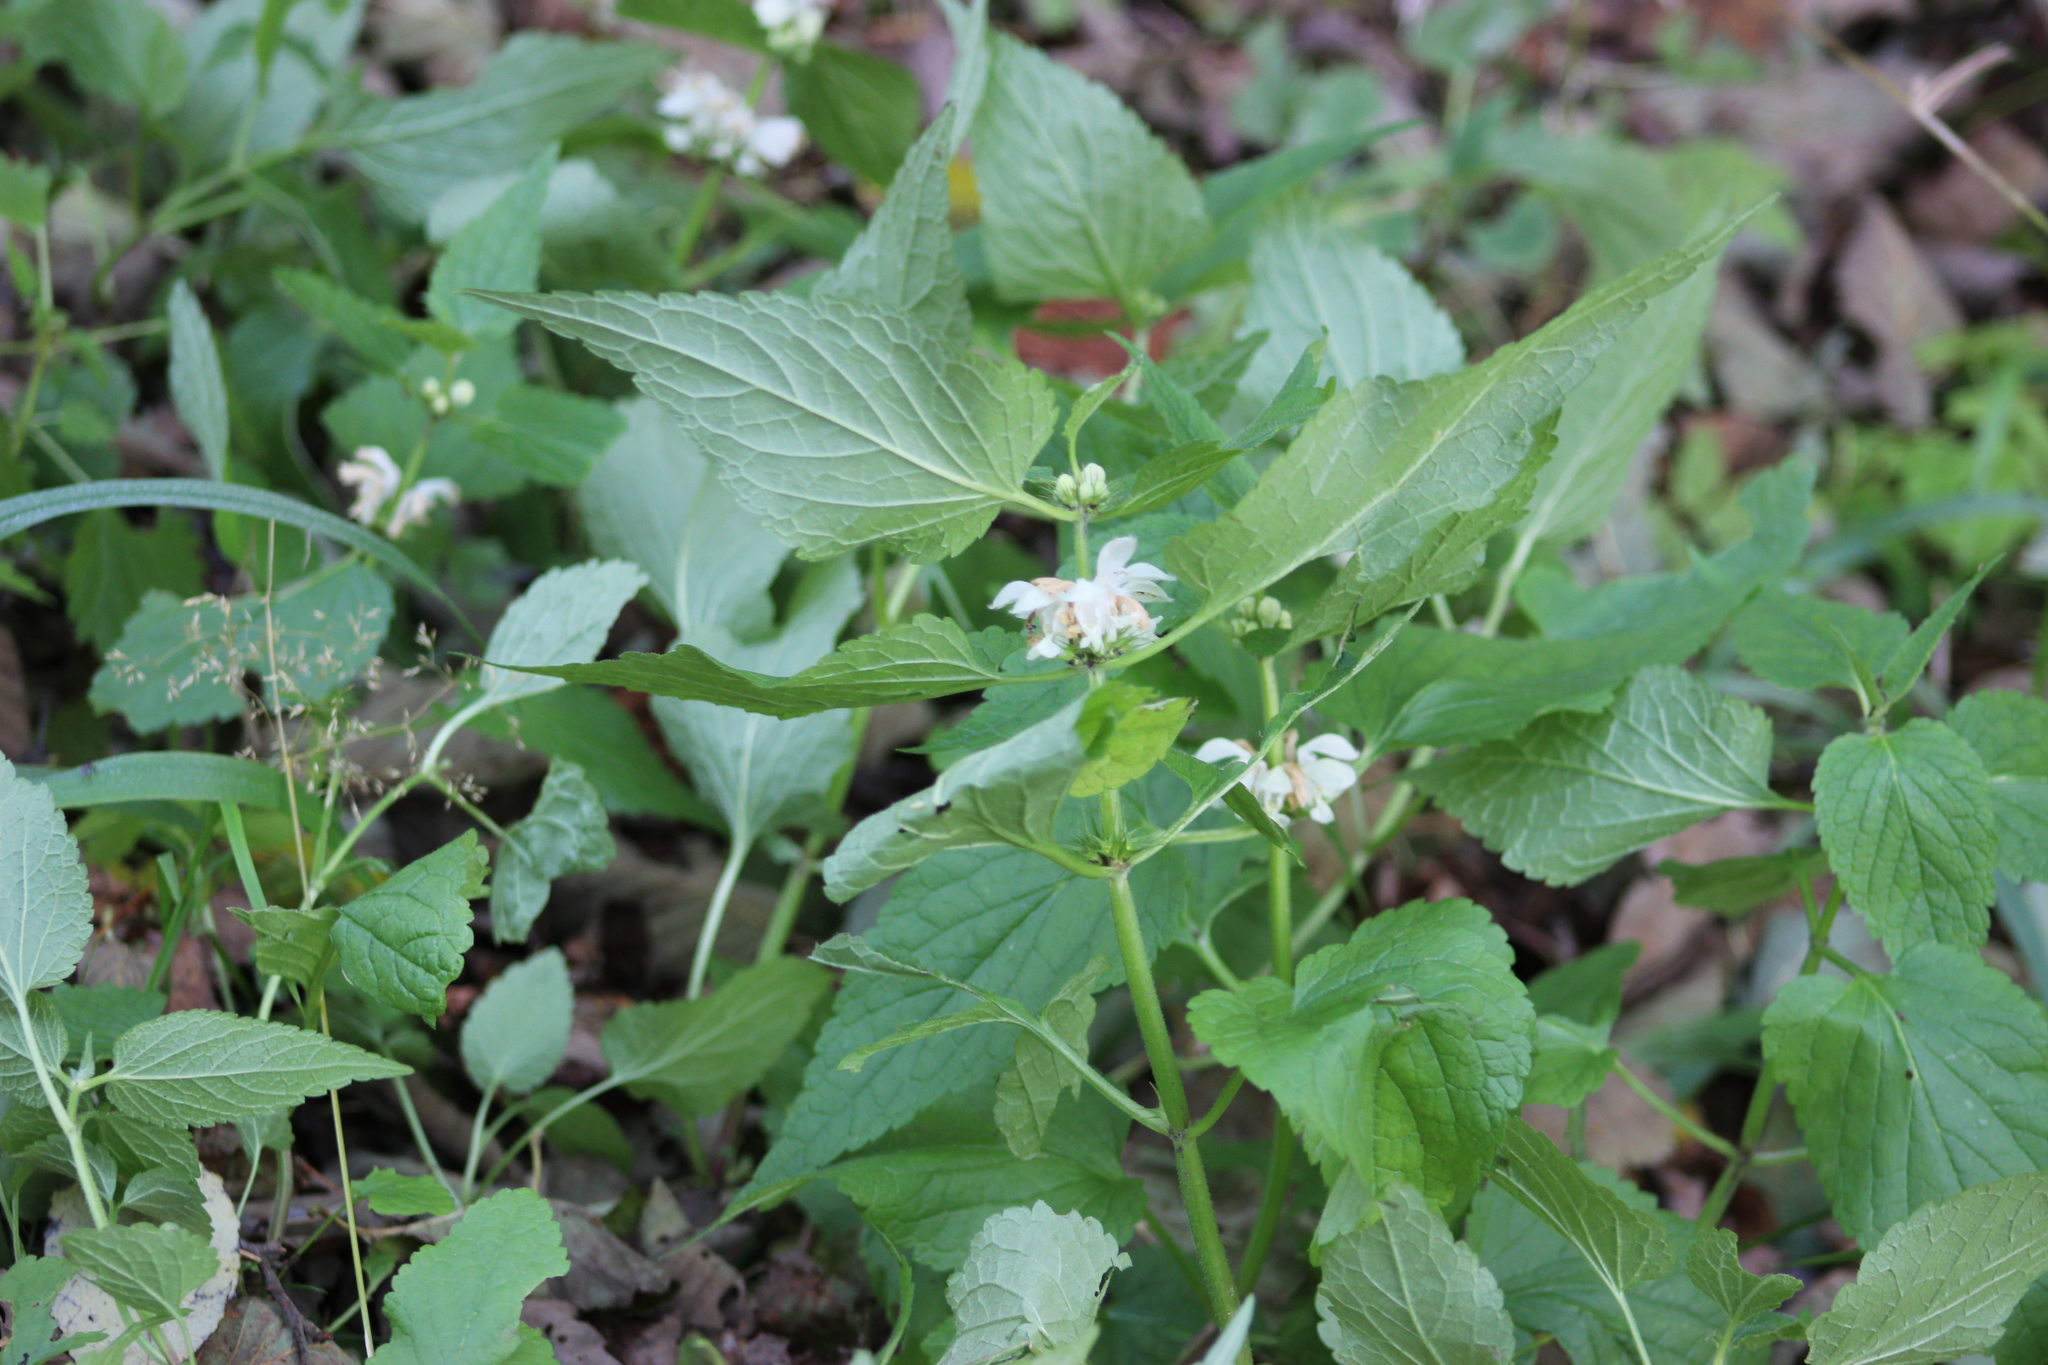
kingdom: Plantae
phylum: Tracheophyta
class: Magnoliopsida
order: Lamiales
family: Lamiaceae
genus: Lamium
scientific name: Lamium album
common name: White dead-nettle
